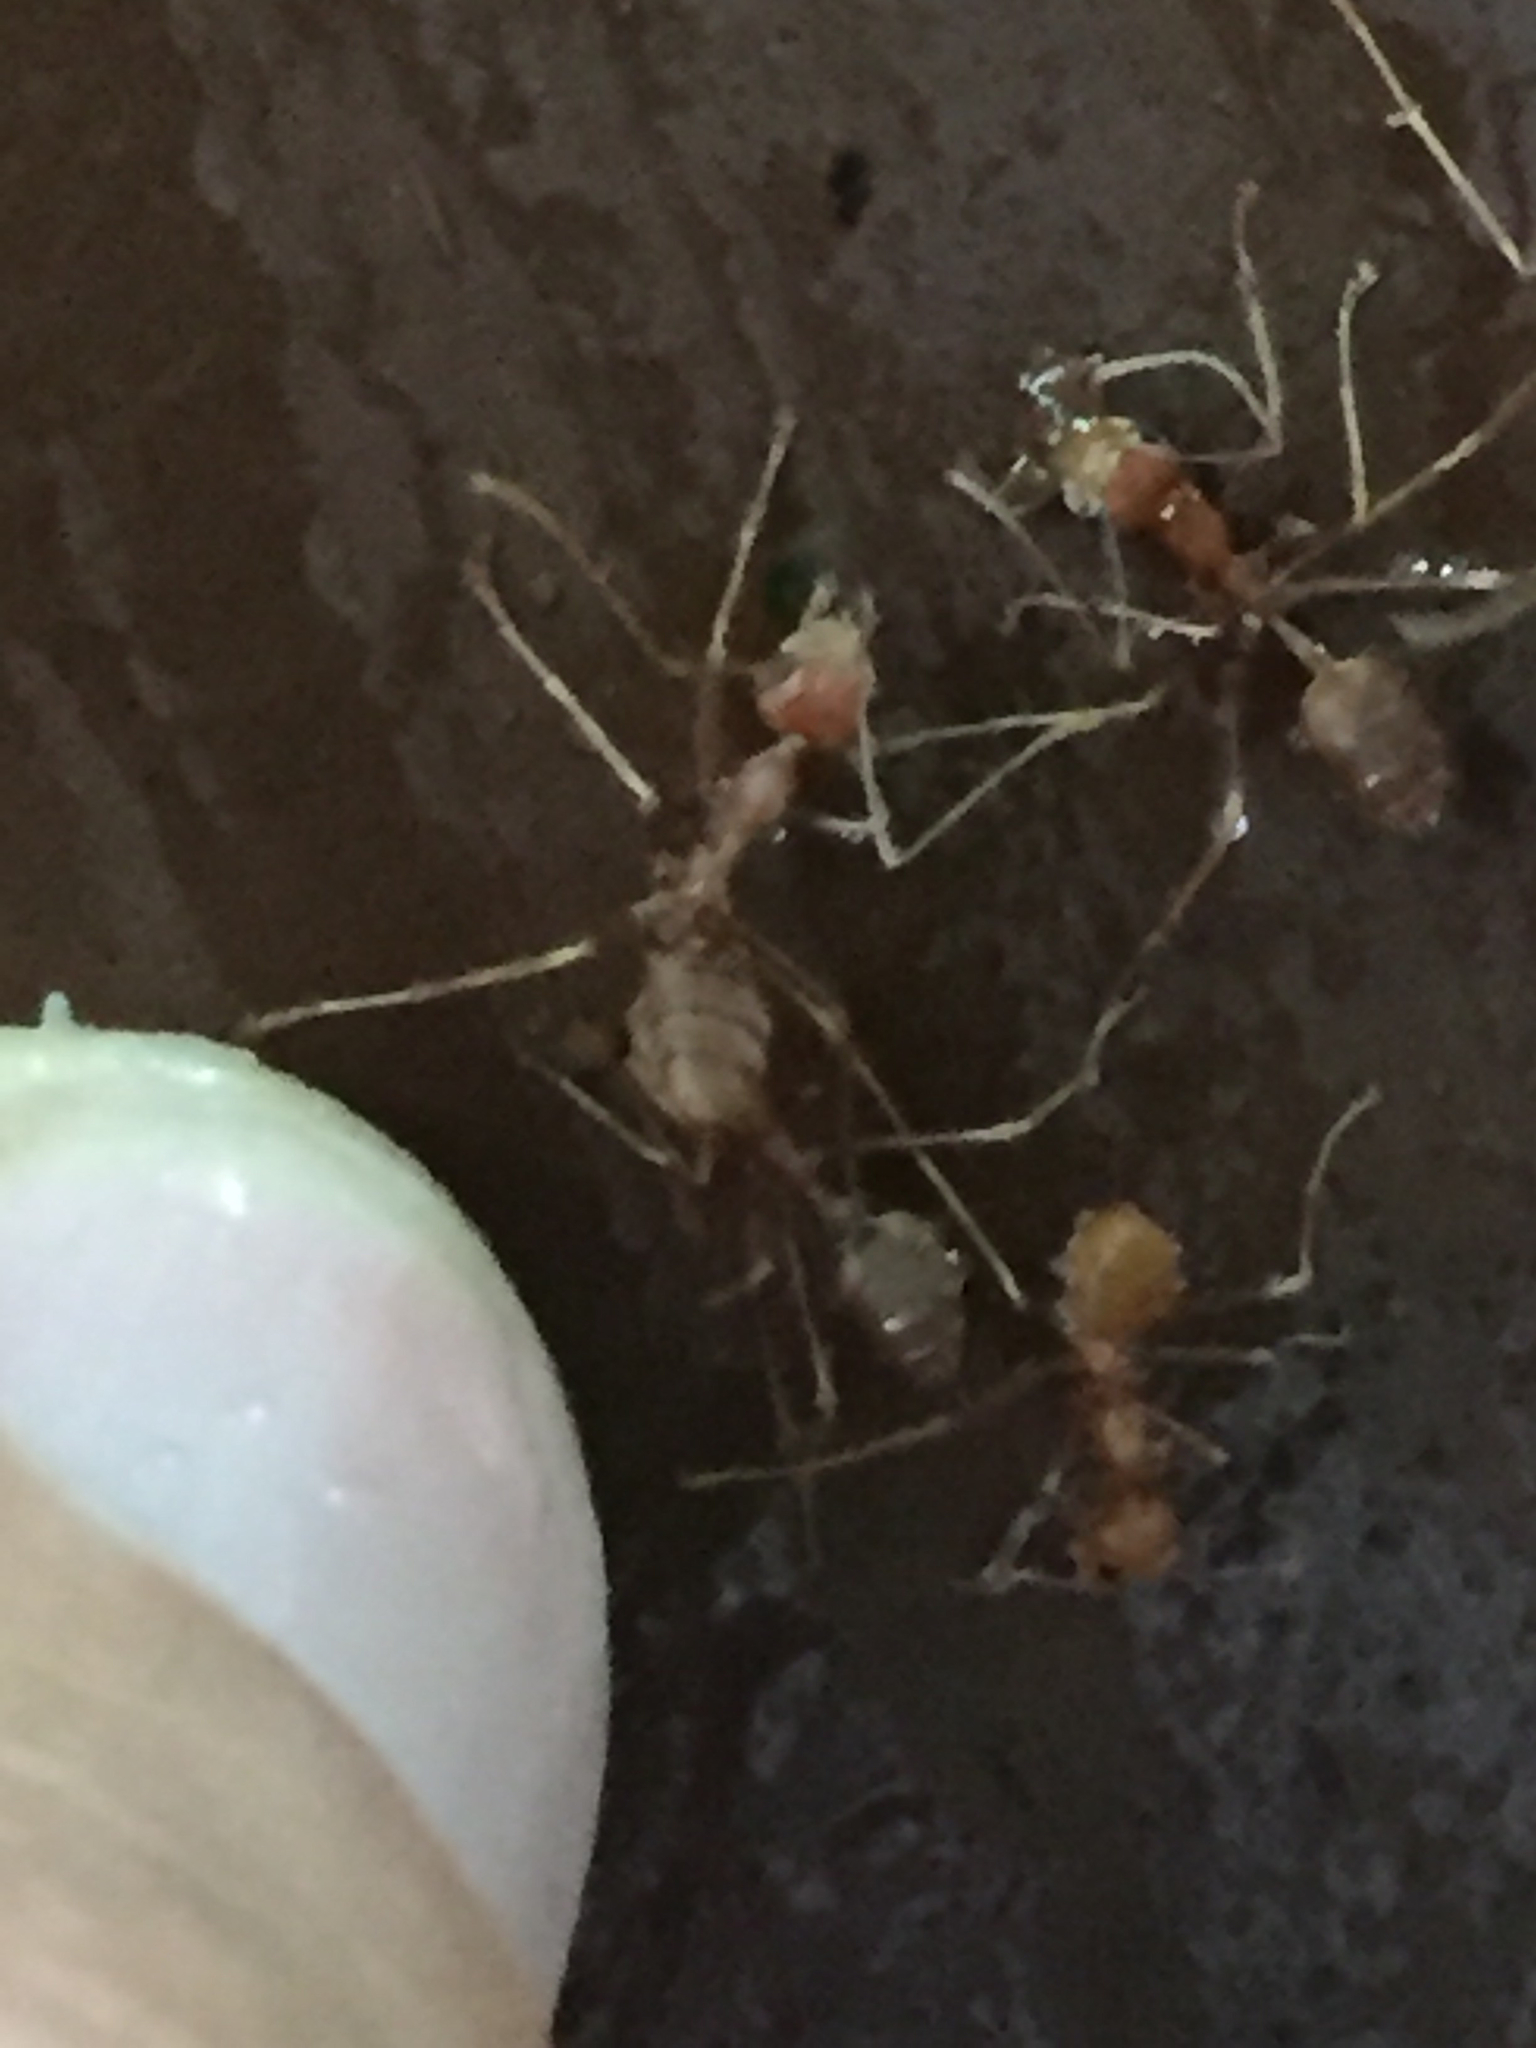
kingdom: Animalia
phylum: Arthropoda
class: Insecta
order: Hymenoptera
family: Formicidae
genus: Oecophylla
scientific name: Oecophylla smaragdina
